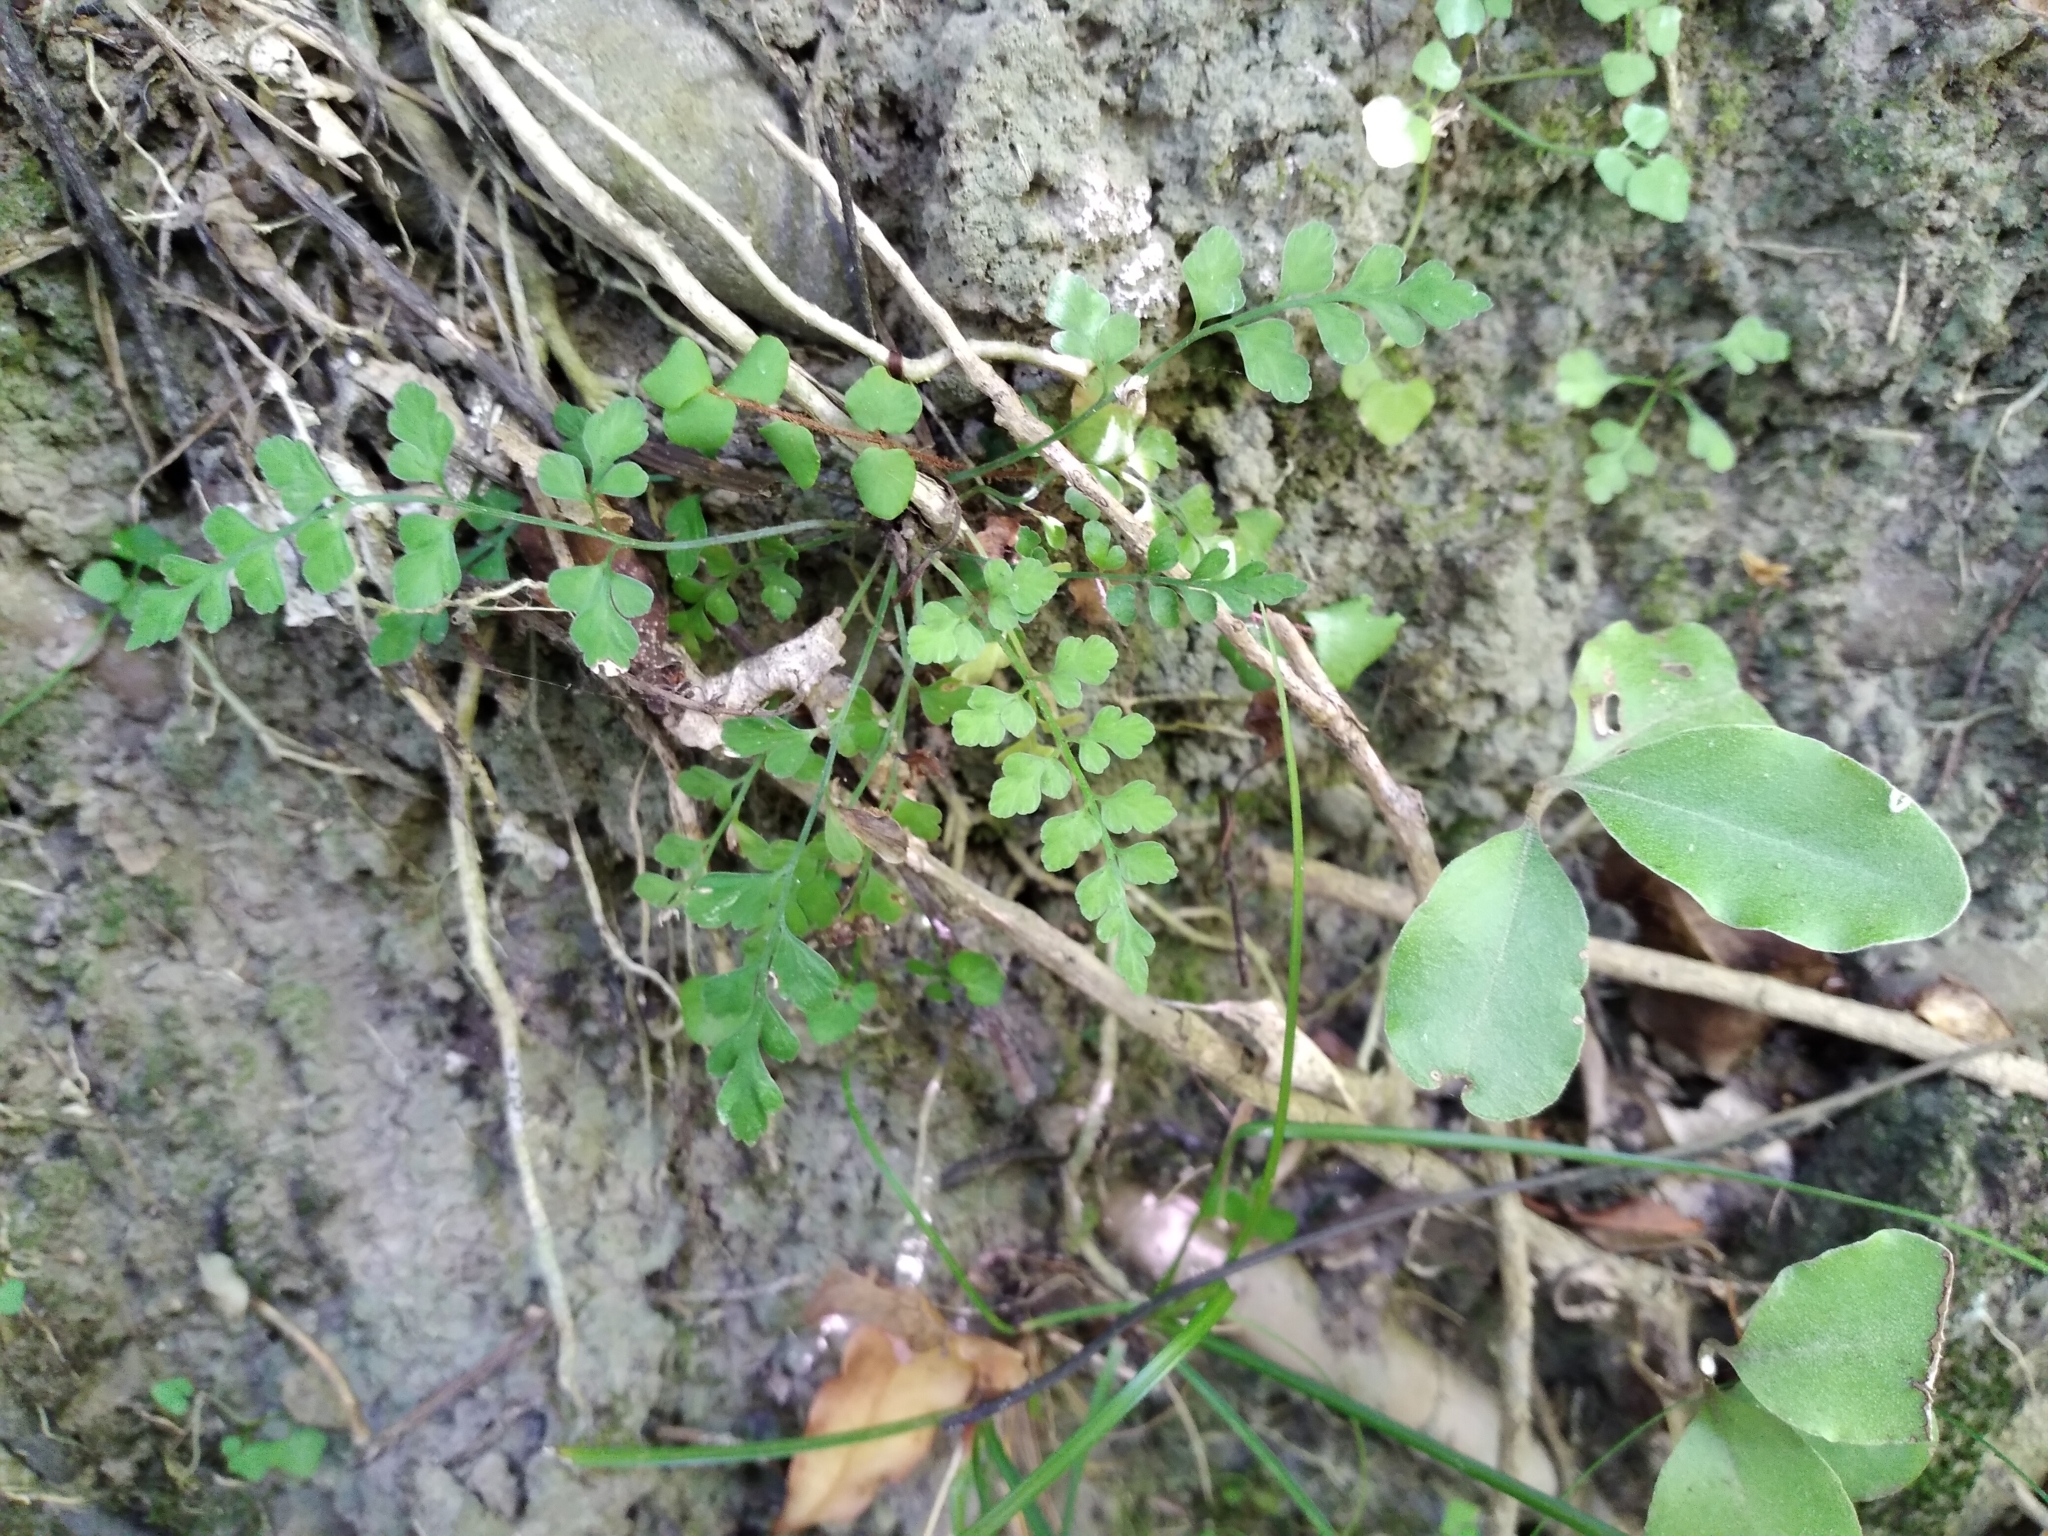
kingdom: Plantae
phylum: Tracheophyta
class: Polypodiopsida
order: Polypodiales
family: Aspleniaceae
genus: Asplenium
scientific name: Asplenium hookerianum
